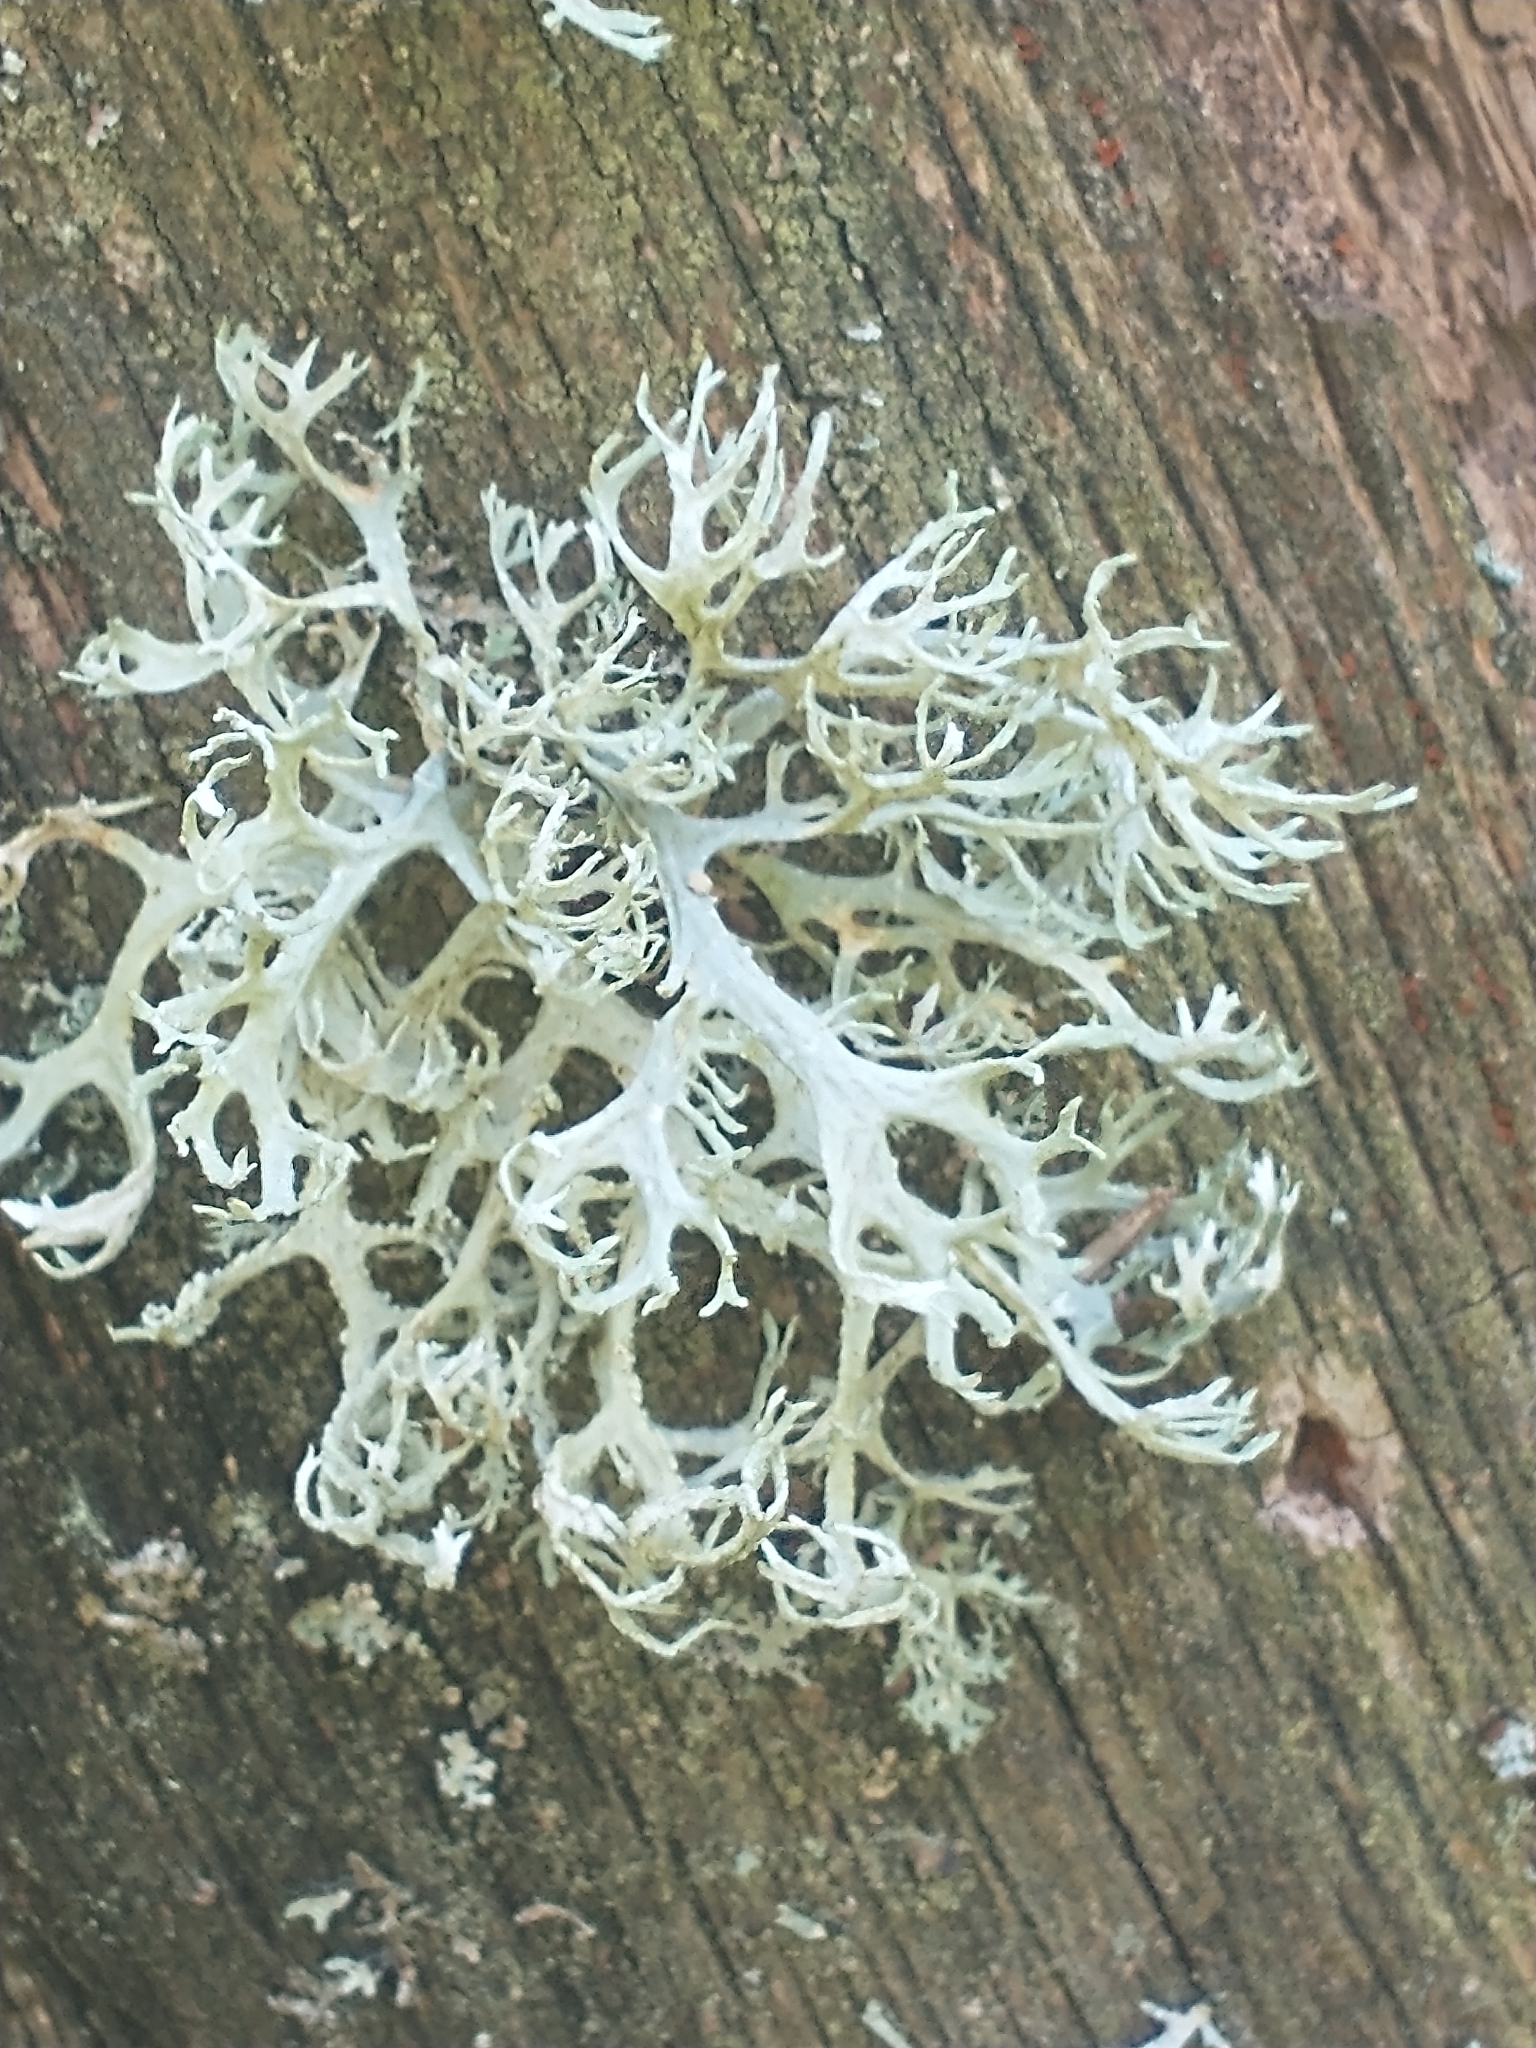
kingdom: Fungi
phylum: Ascomycota
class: Lecanoromycetes
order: Lecanorales
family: Parmeliaceae
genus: Evernia
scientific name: Evernia prunastri
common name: Oak moss
